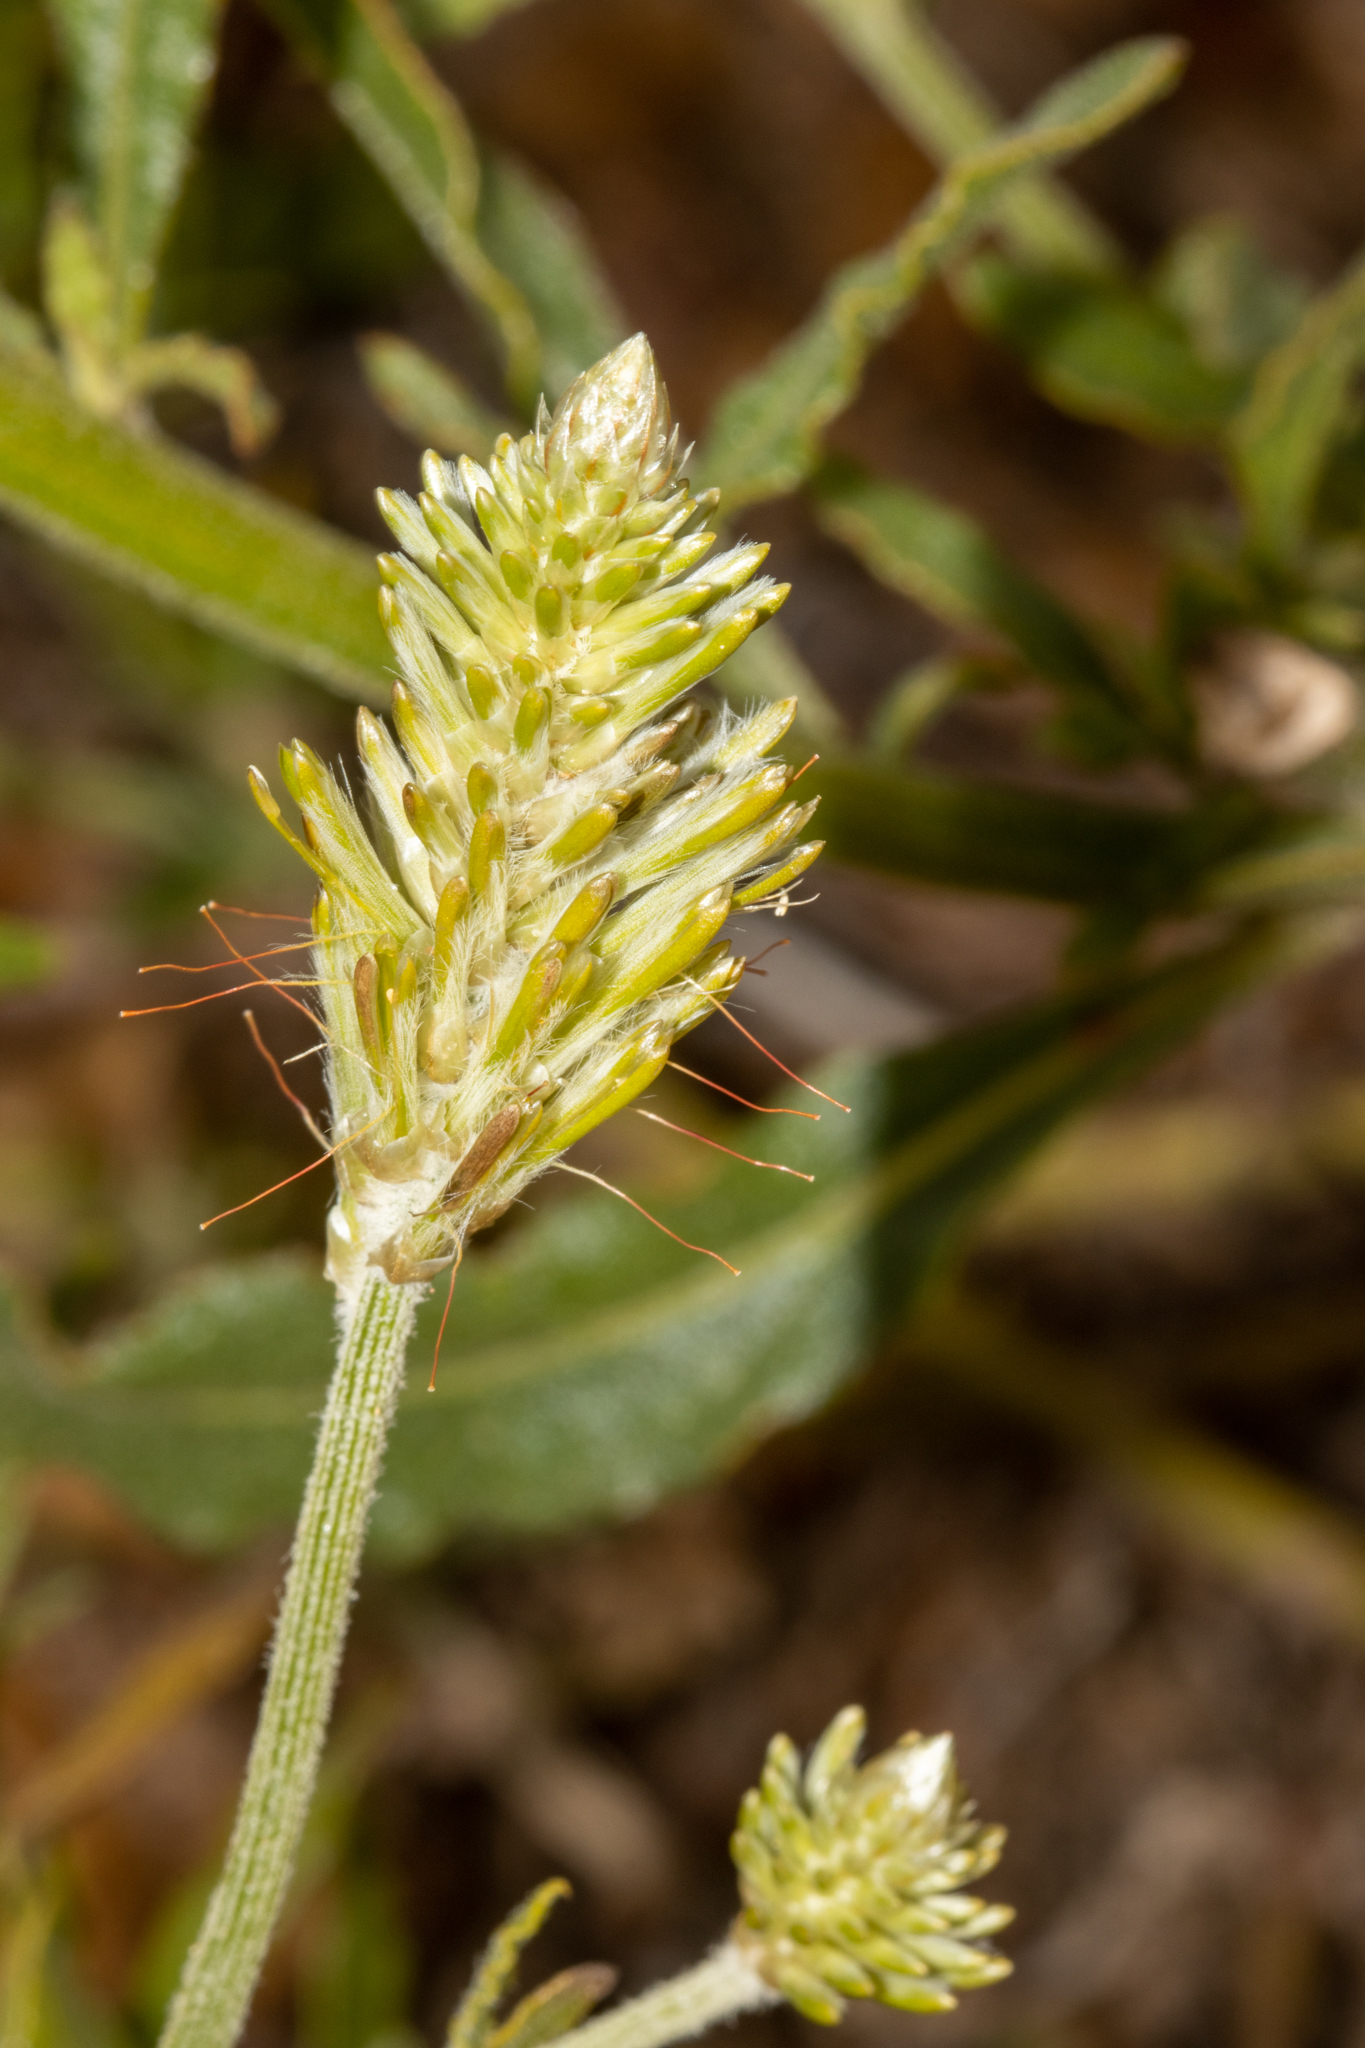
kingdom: Plantae
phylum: Tracheophyta
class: Magnoliopsida
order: Caryophyllales
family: Amaranthaceae
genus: Ptilotus
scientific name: Ptilotus polystachyus
